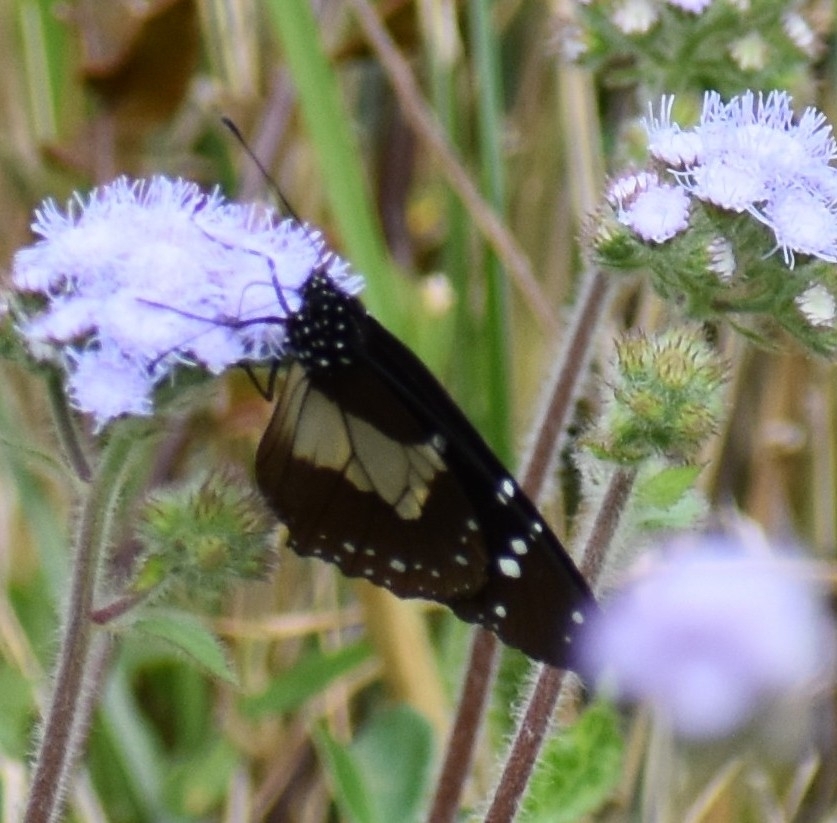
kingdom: Animalia
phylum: Arthropoda
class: Insecta
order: Lepidoptera
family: Nymphalidae
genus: Amauris
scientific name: Amauris echeria
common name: Chief
